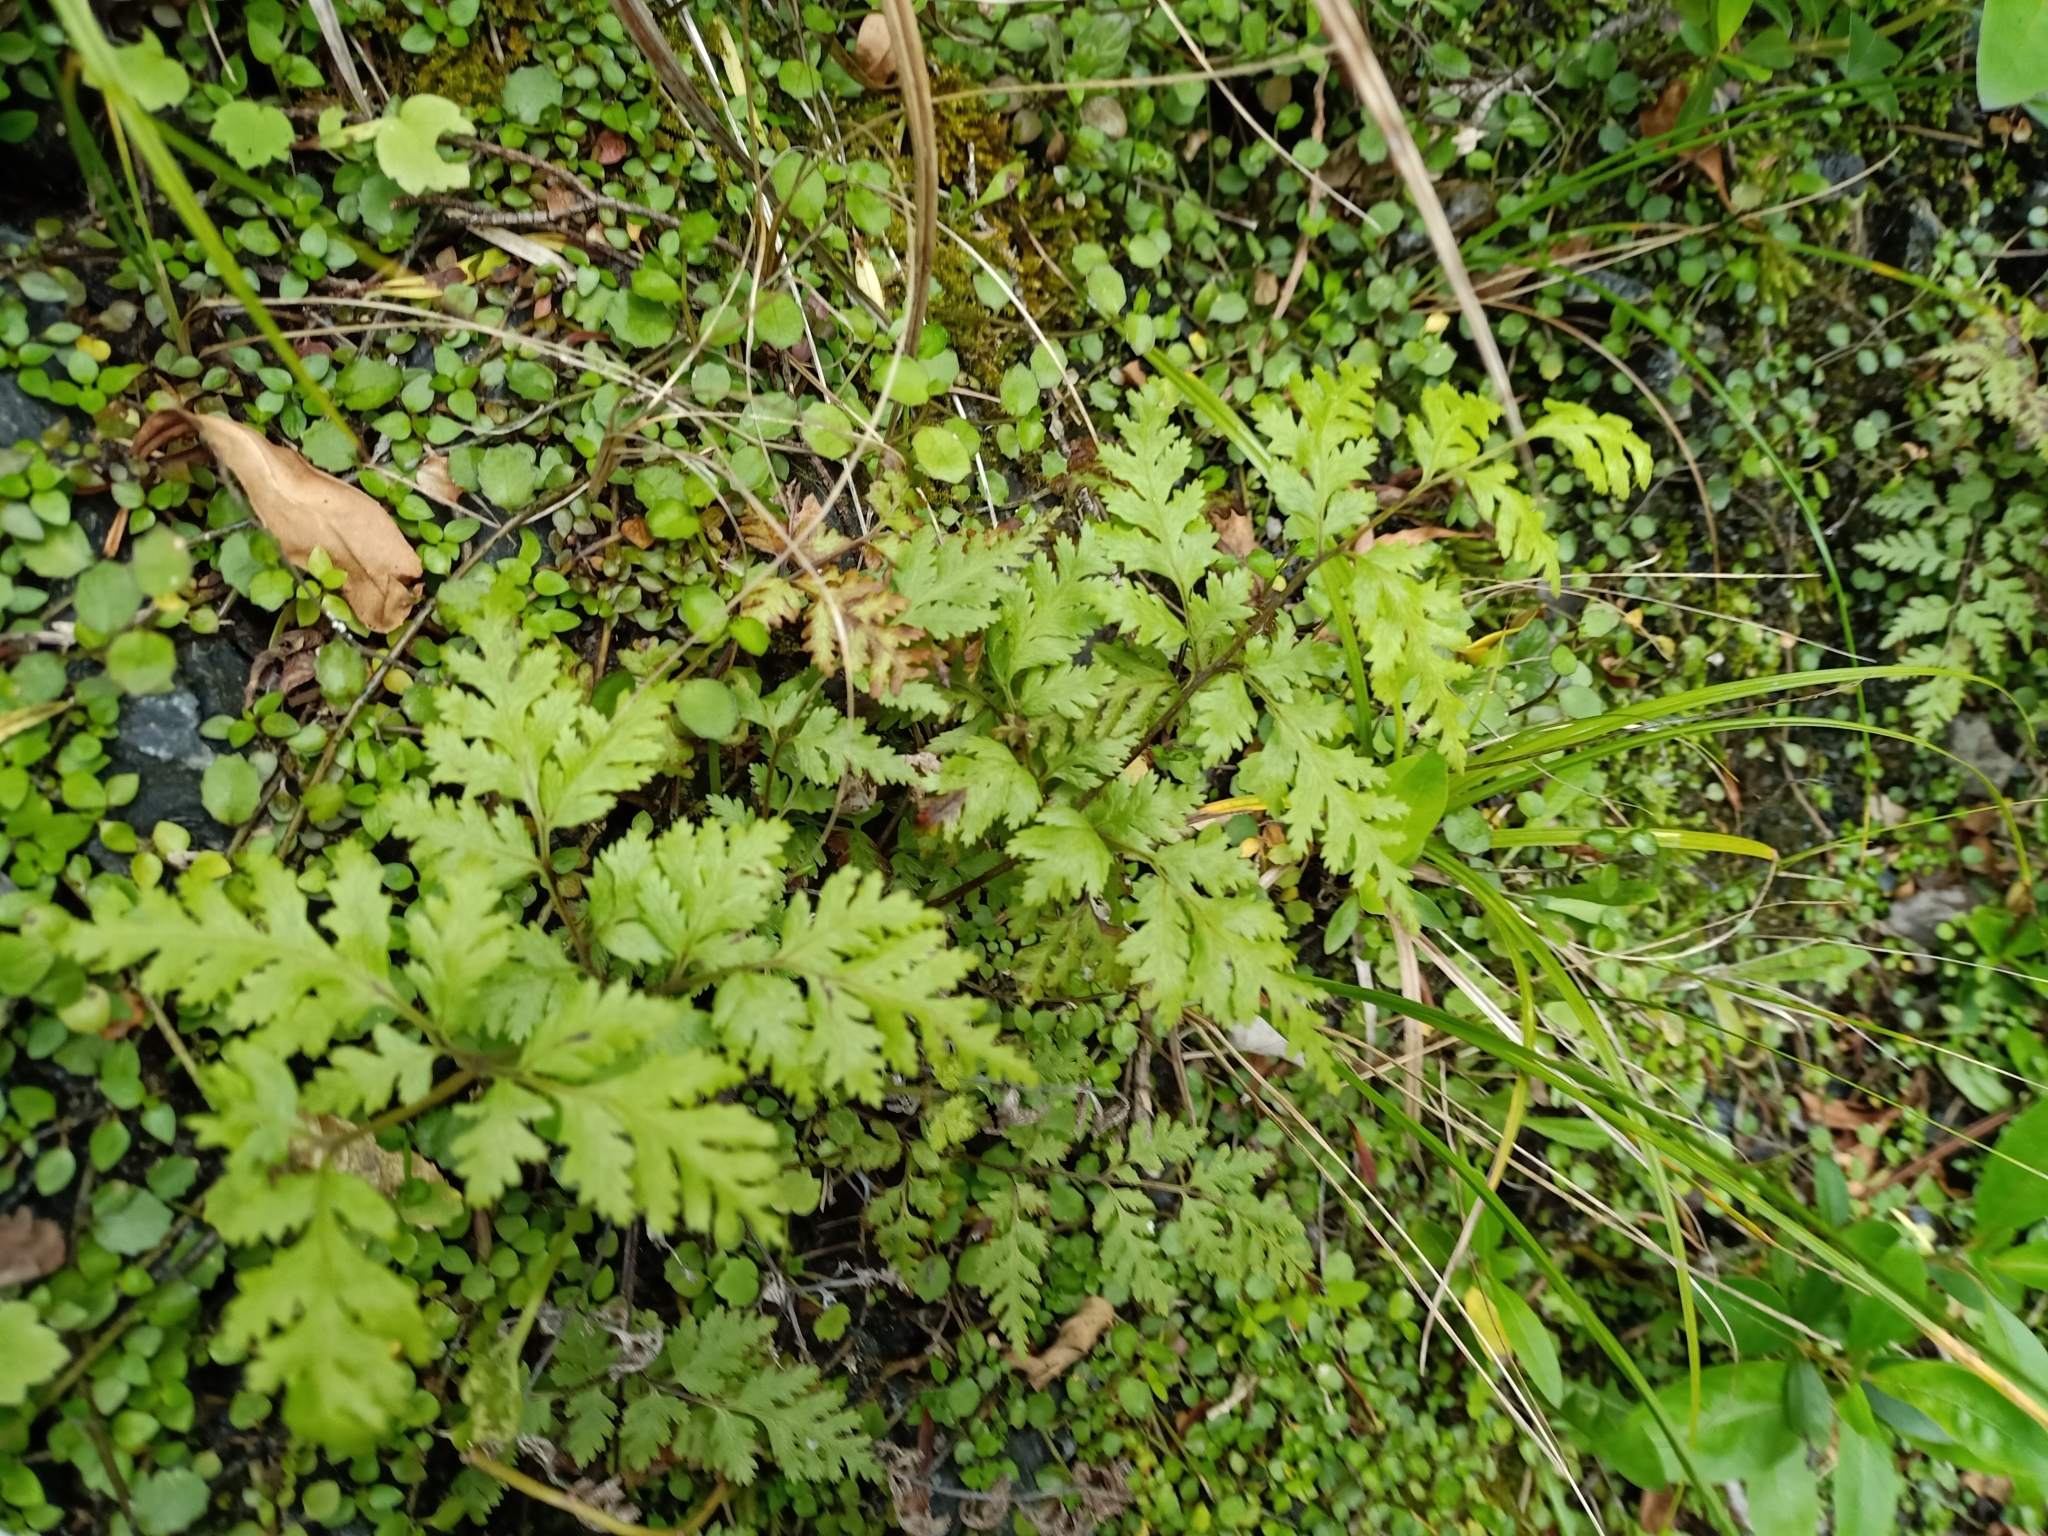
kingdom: Plantae
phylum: Tracheophyta
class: Polypodiopsida
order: Polypodiales
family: Pteridaceae
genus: Pteris
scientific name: Pteris macilenta
